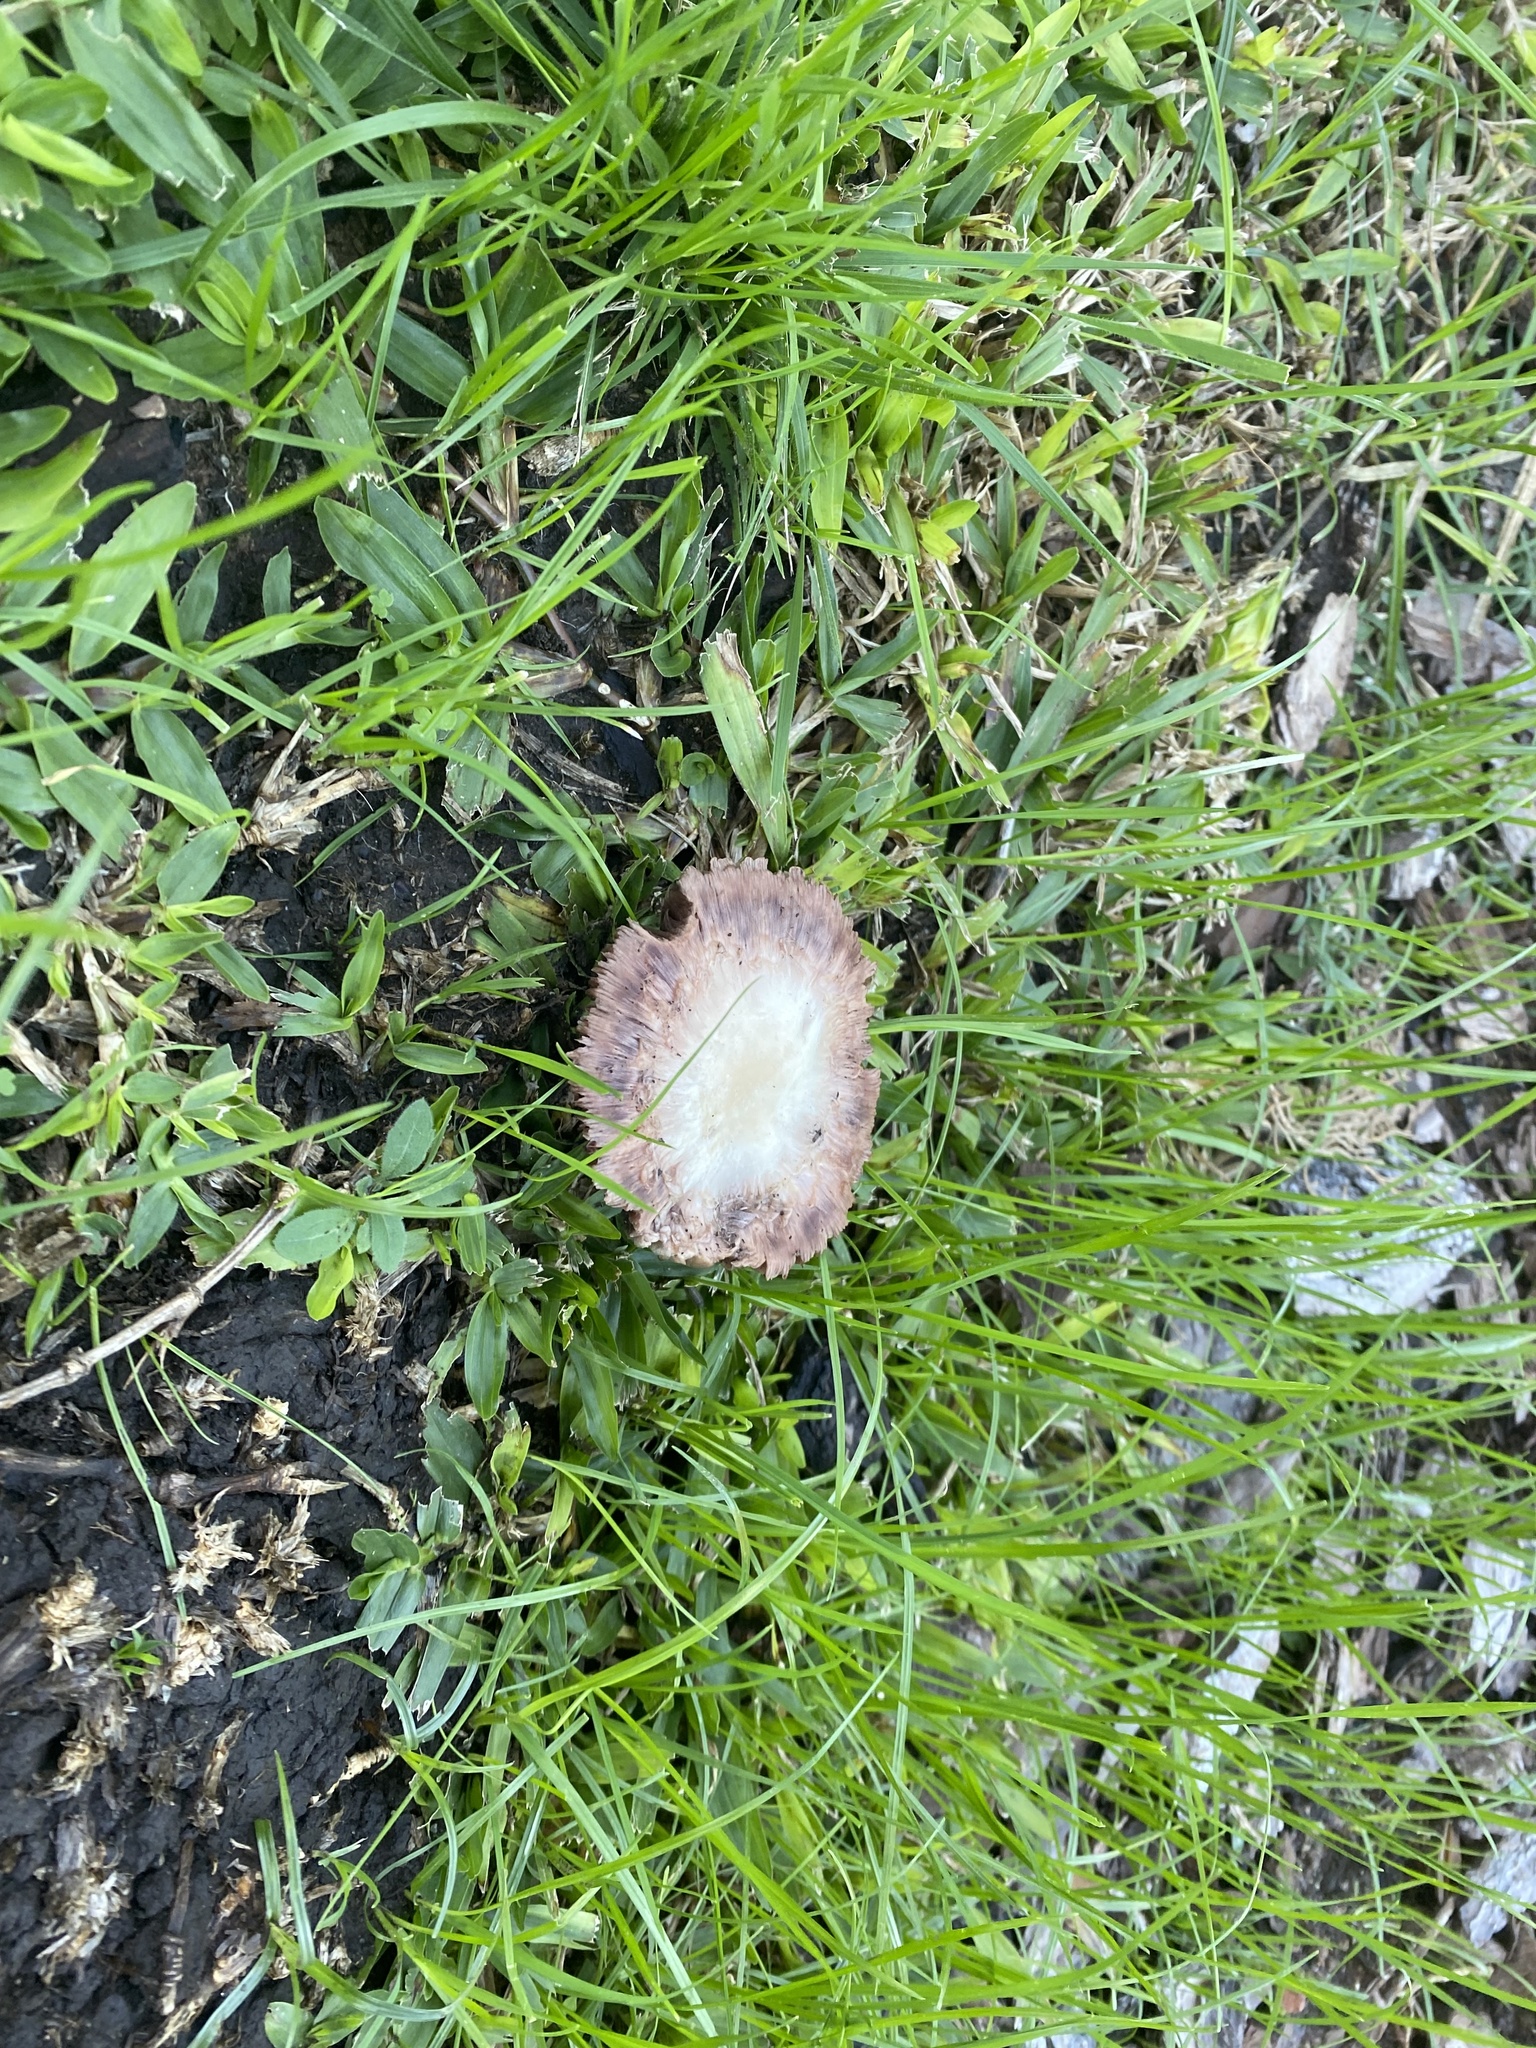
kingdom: Fungi
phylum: Basidiomycota
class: Agaricomycetes
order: Agaricales
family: Agaricaceae
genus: Agaricus
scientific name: Agaricus xanthodermus
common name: Yellow stainer
